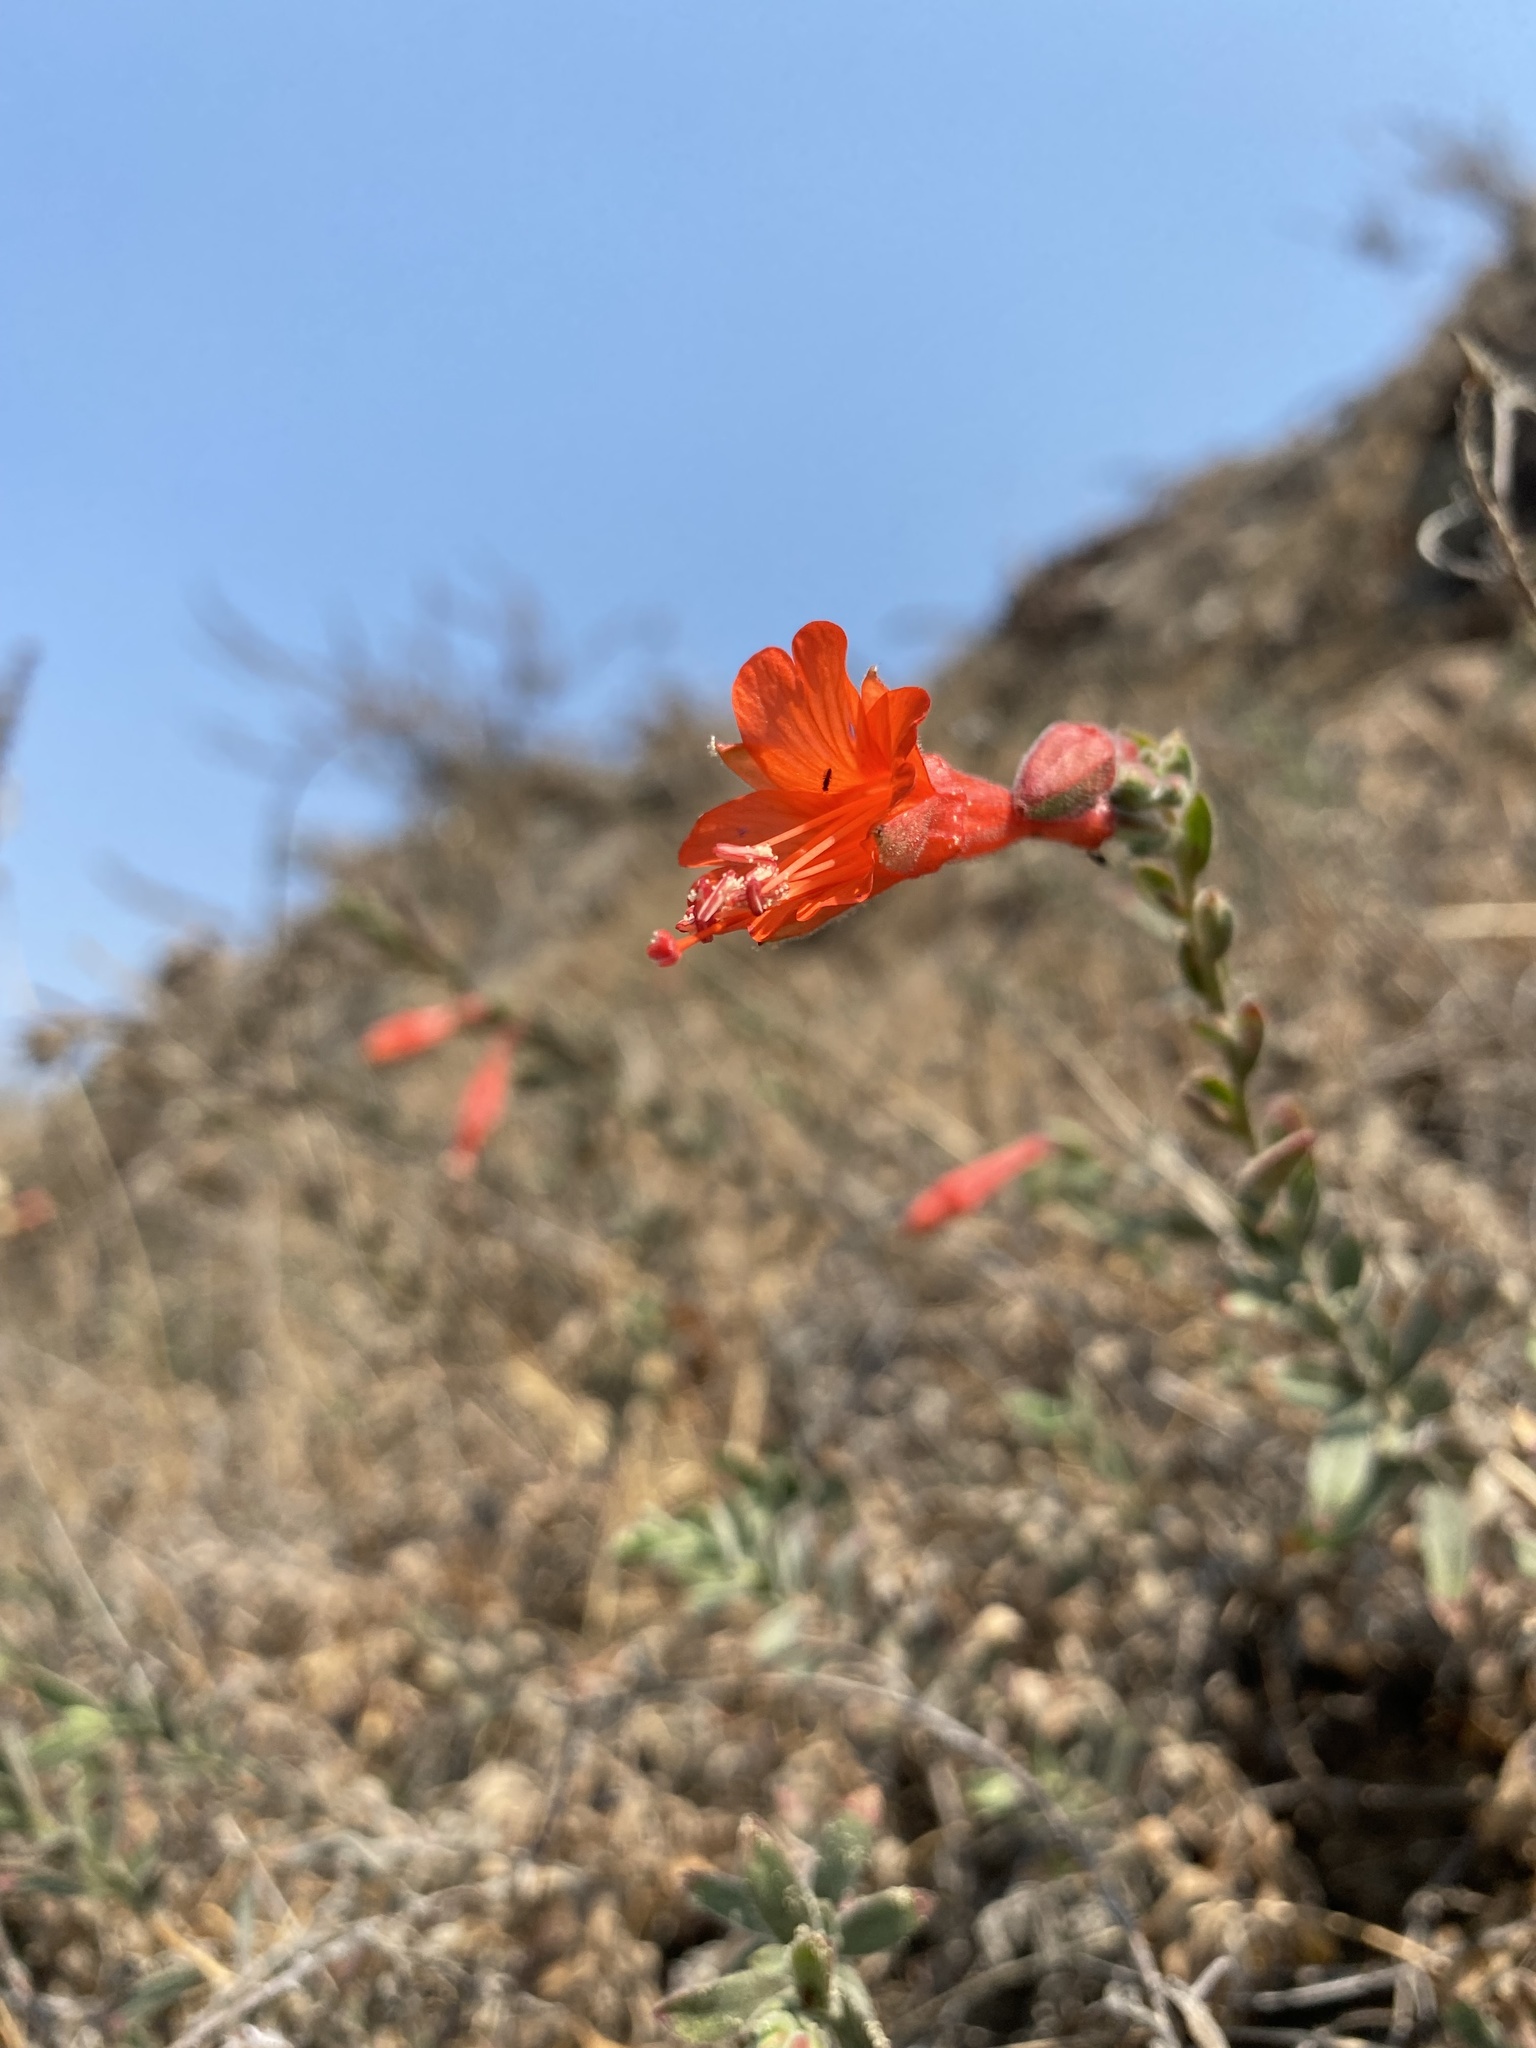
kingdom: Plantae
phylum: Tracheophyta
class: Magnoliopsida
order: Myrtales
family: Onagraceae
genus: Epilobium
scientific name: Epilobium canum
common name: California-fuchsia
